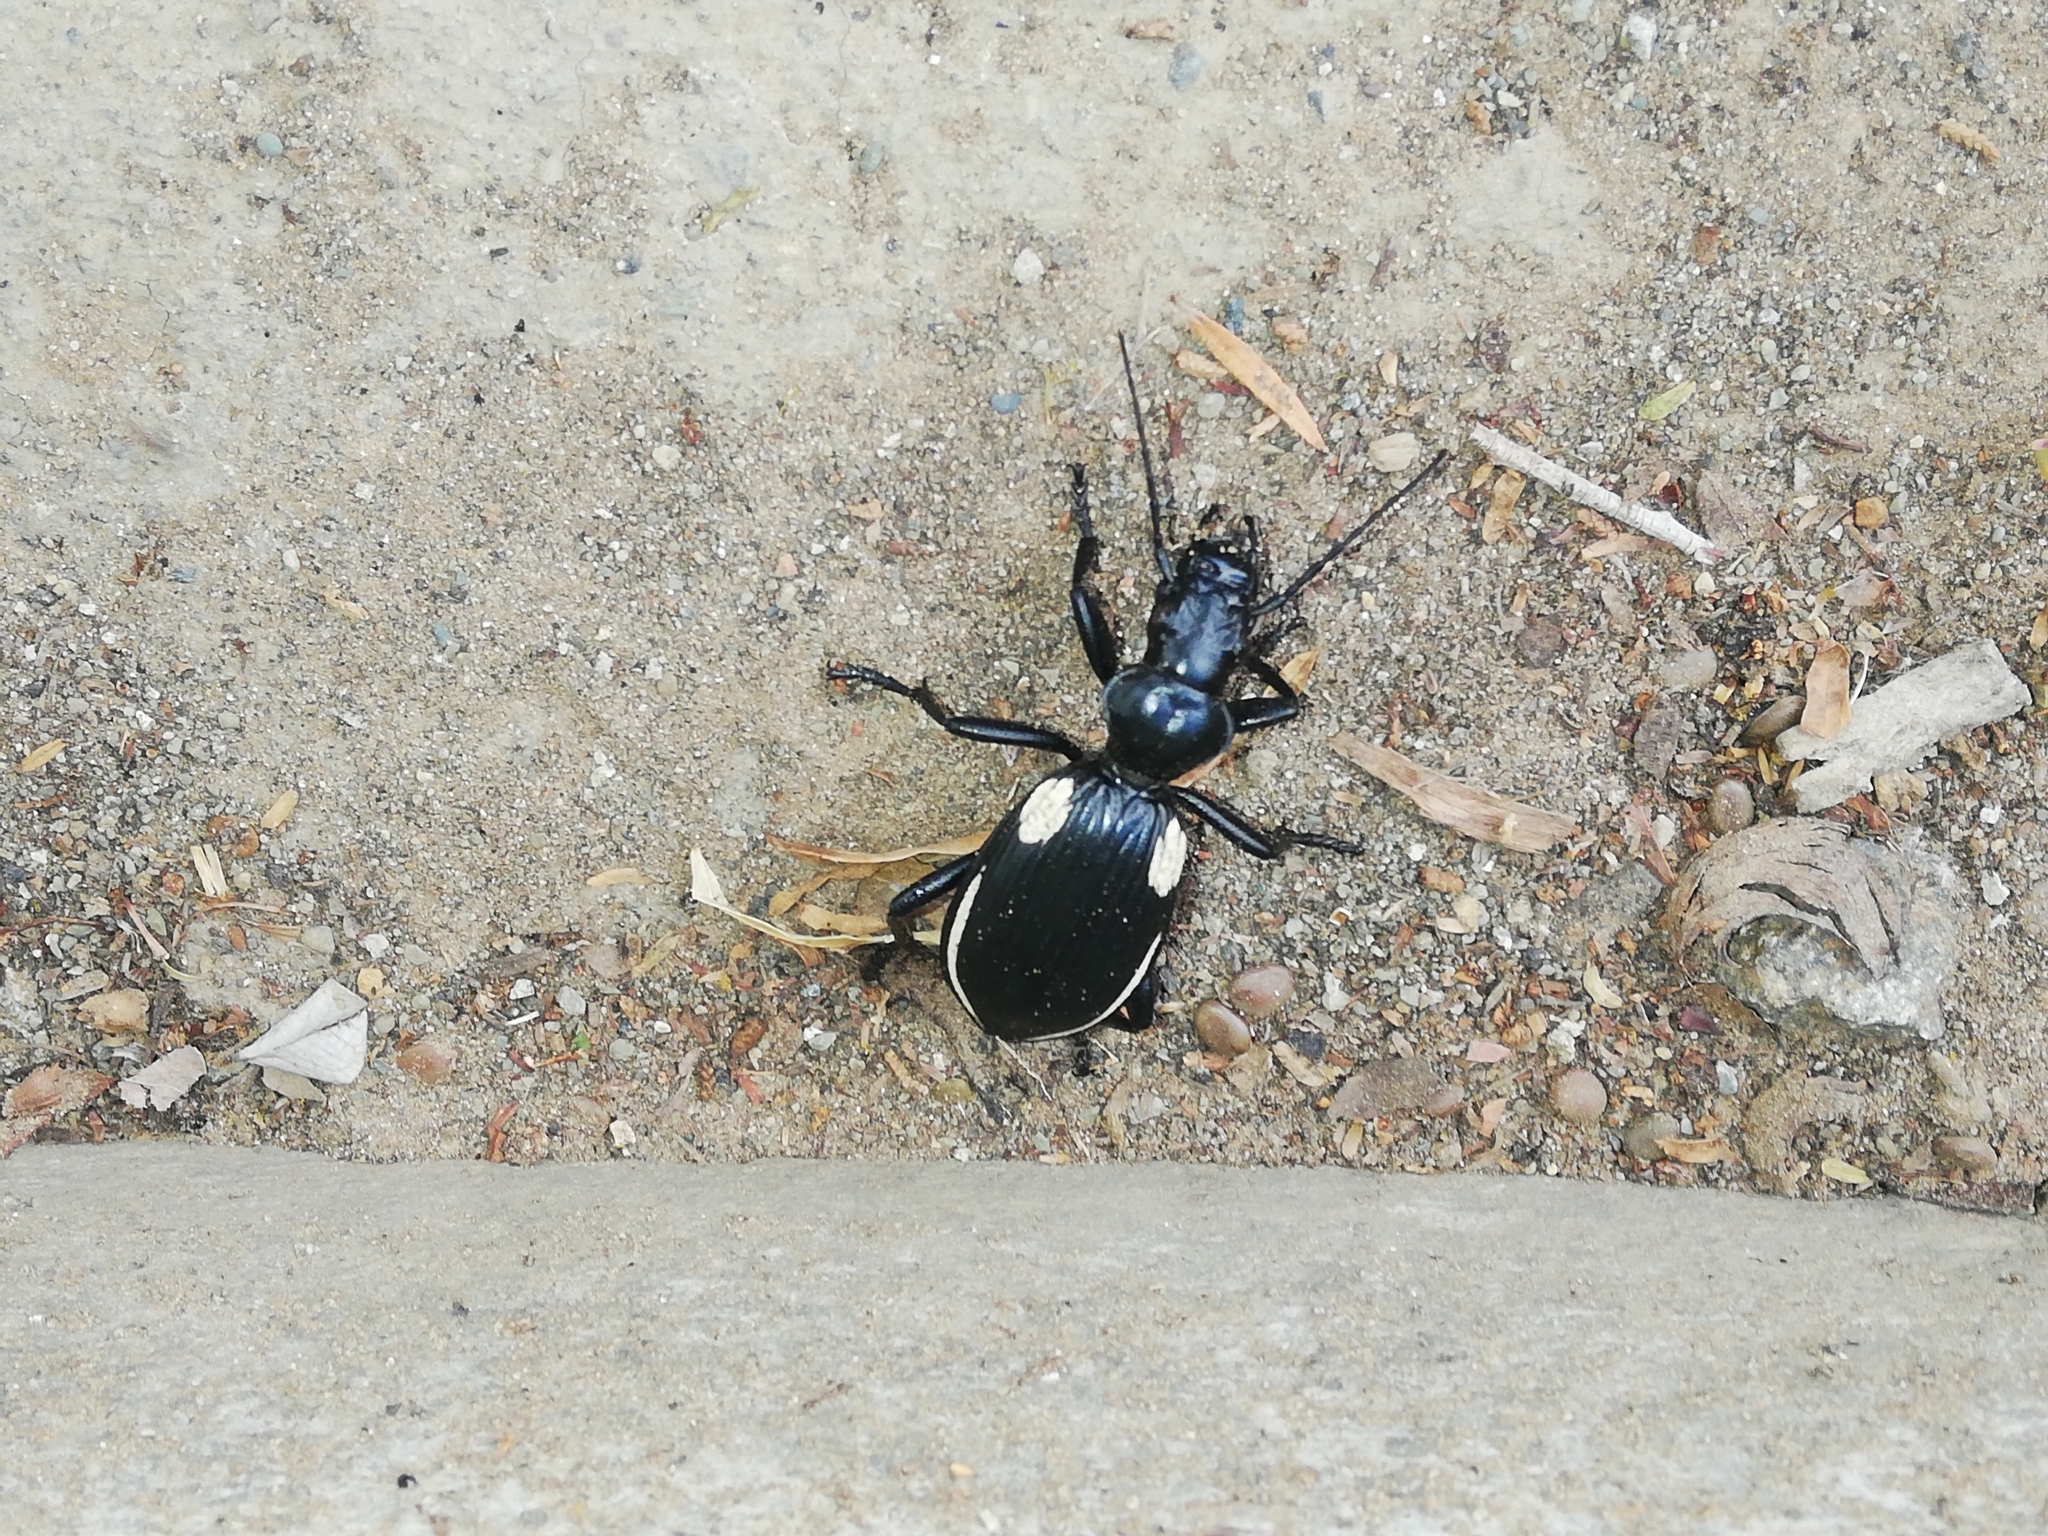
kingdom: Animalia
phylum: Arthropoda
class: Insecta
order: Coleoptera
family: Carabidae
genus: Anthia
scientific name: Anthia
